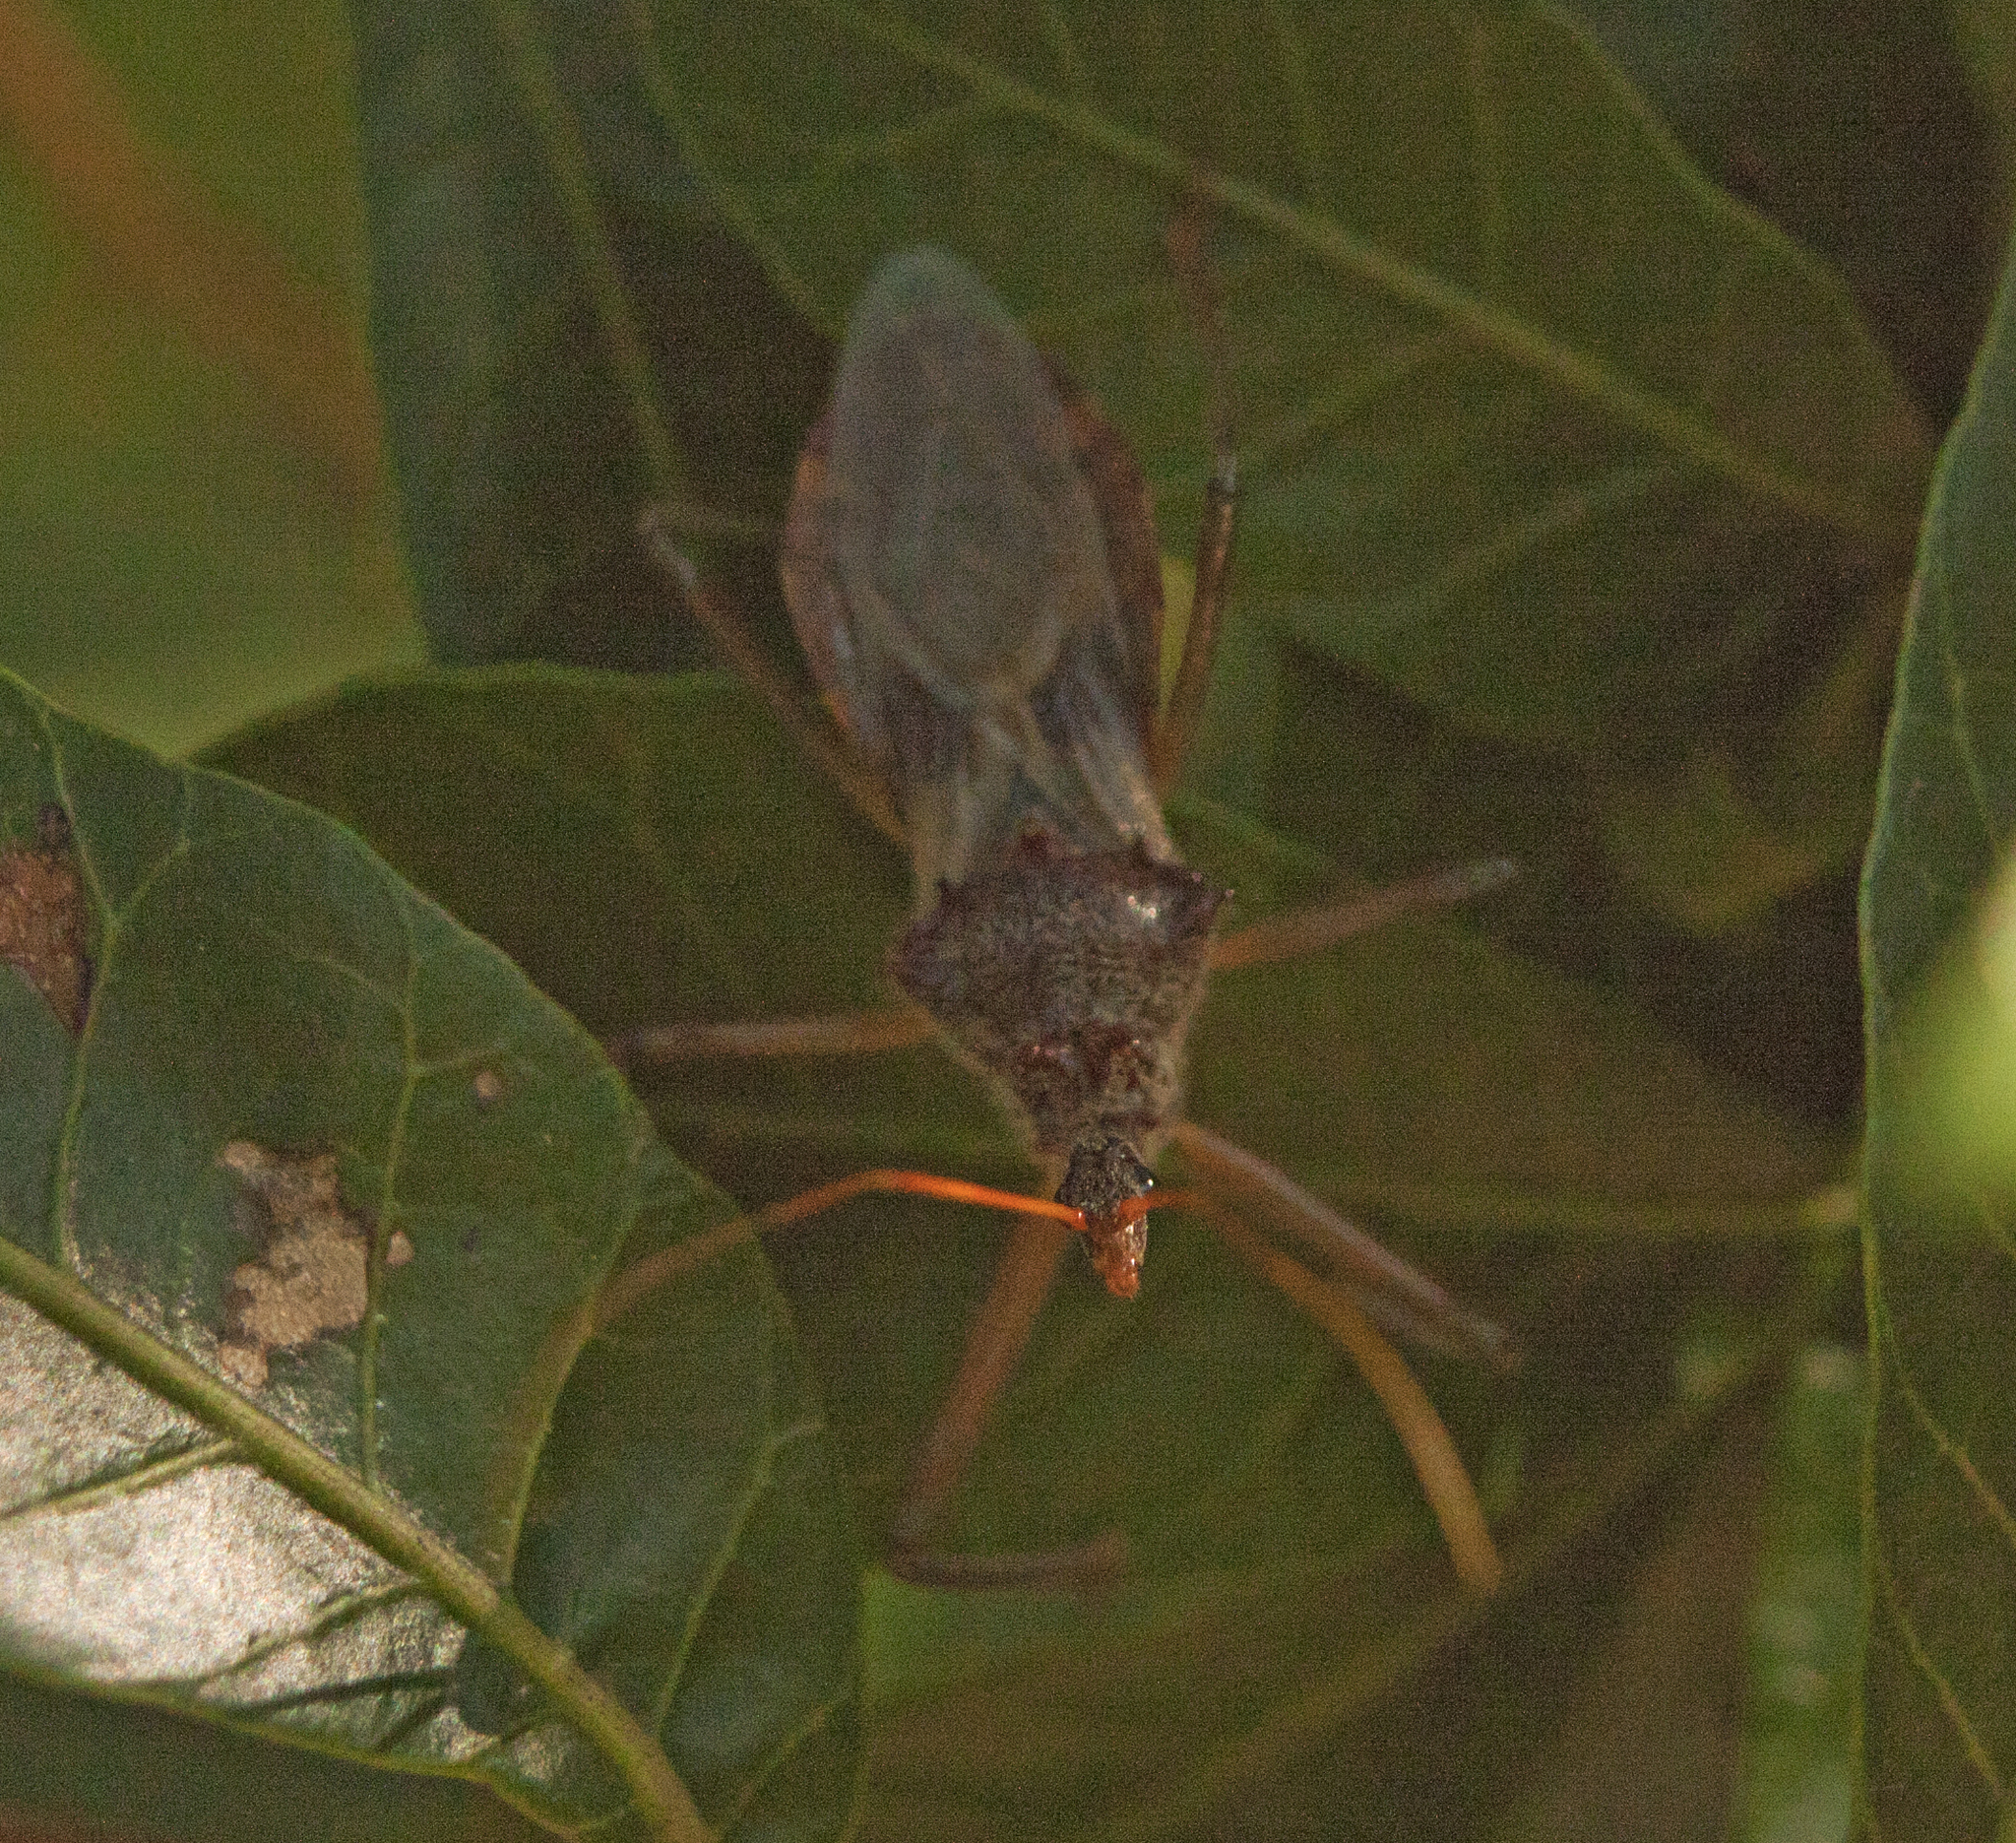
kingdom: Animalia
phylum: Arthropoda
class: Insecta
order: Hemiptera
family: Reduviidae
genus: Pristhesancus
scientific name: Pristhesancus plagipennis
